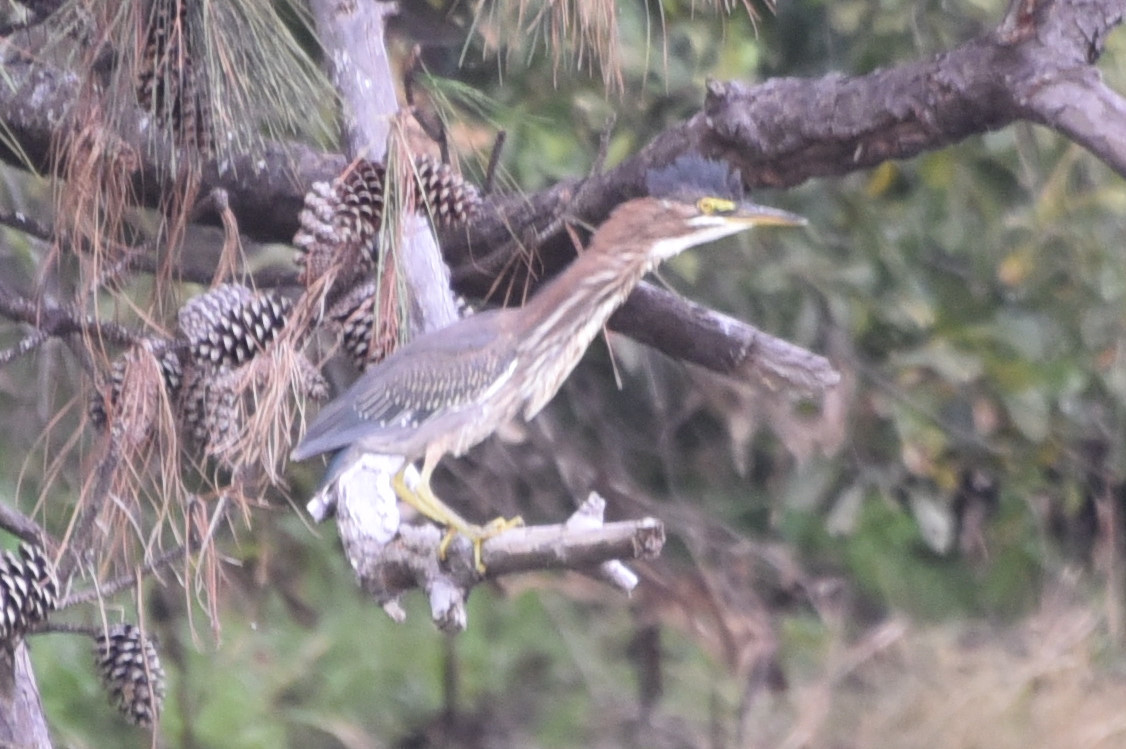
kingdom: Animalia
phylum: Chordata
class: Aves
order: Pelecaniformes
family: Ardeidae
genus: Butorides
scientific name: Butorides virescens
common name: Green heron
